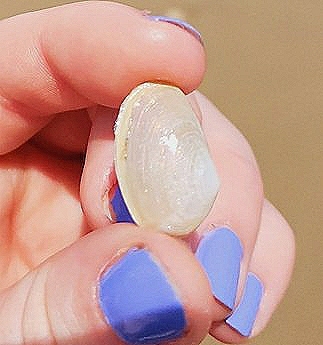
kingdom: Animalia
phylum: Mollusca
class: Bivalvia
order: Venerida
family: Mesodesmatidae
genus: Mesodesma
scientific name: Mesodesma arctatum
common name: Compressed clam
